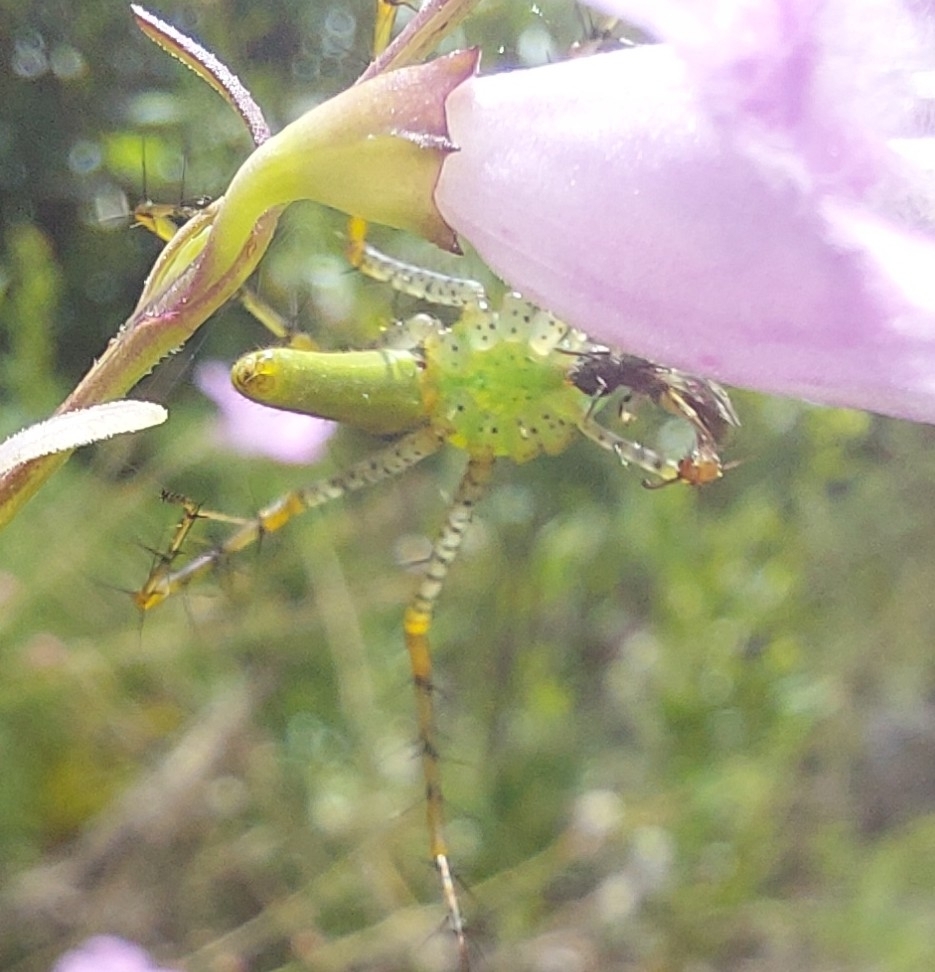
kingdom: Animalia
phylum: Arthropoda
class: Arachnida
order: Araneae
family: Oxyopidae
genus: Peucetia
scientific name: Peucetia viridans
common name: Lynx spiders
